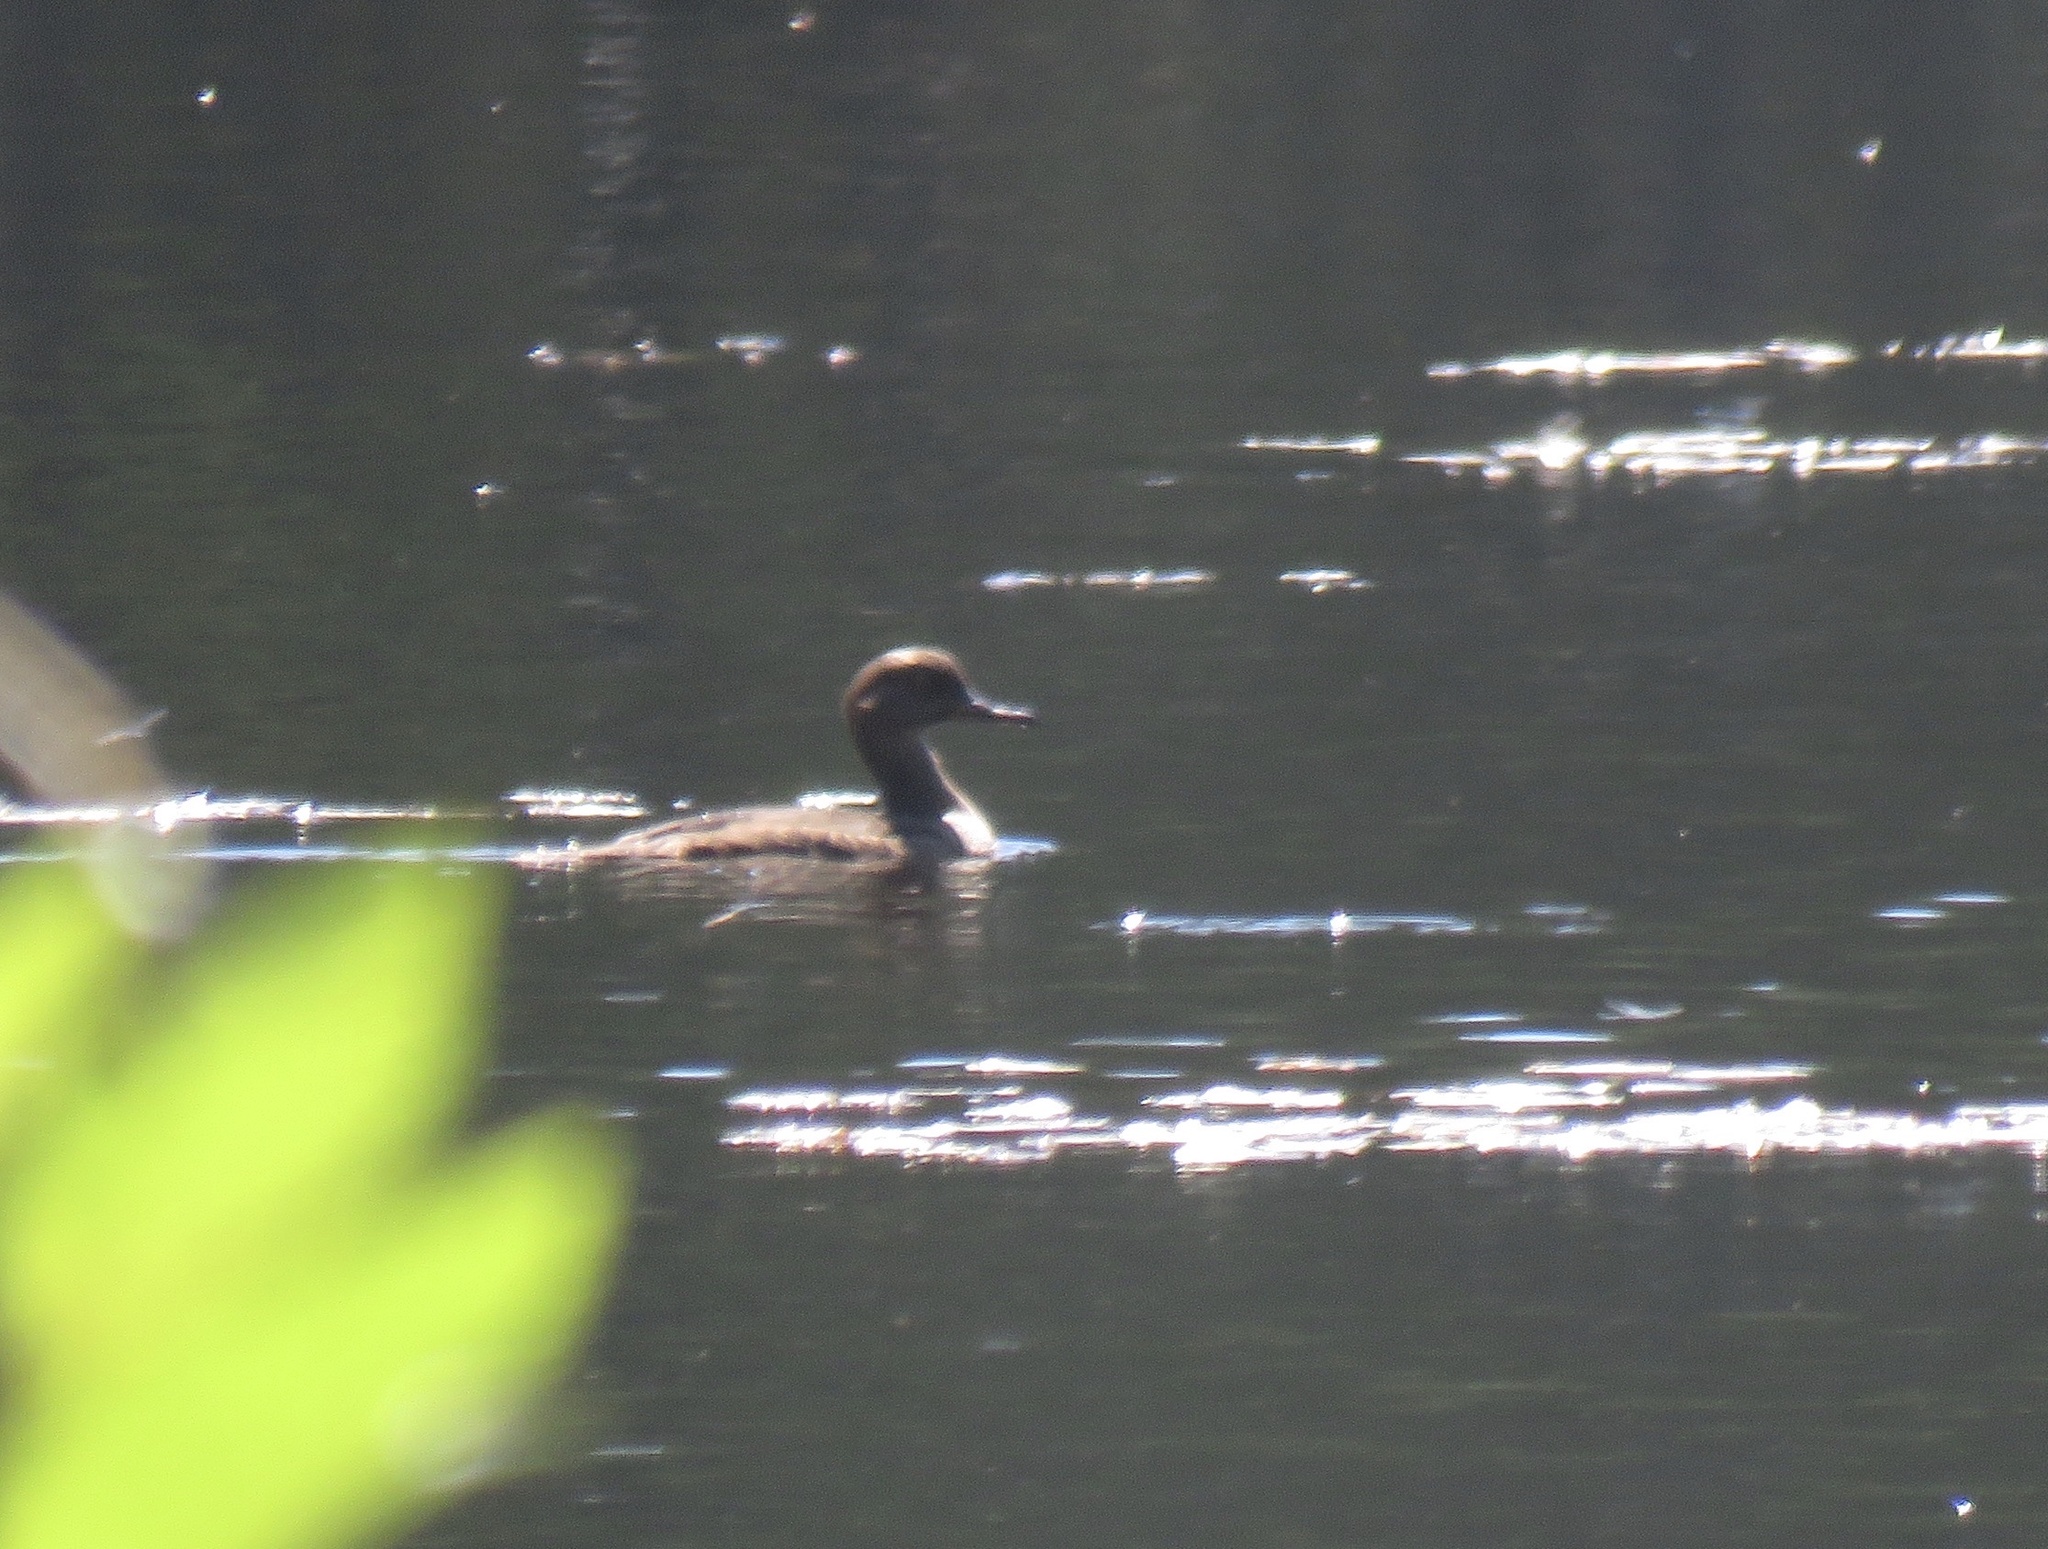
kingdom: Animalia
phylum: Chordata
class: Aves
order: Anseriformes
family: Anatidae
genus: Lophodytes
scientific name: Lophodytes cucullatus
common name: Hooded merganser
